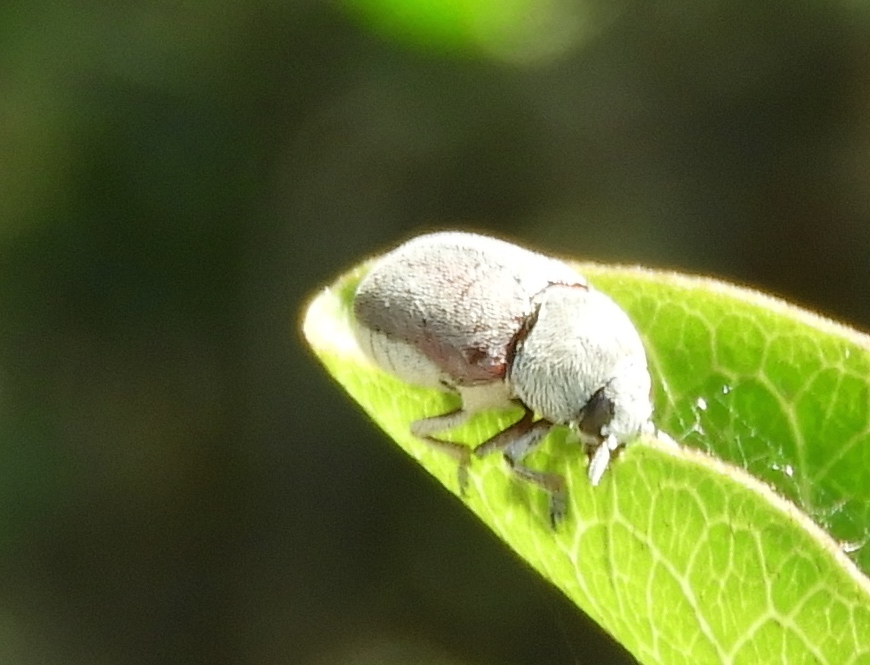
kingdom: Animalia
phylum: Arthropoda
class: Insecta
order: Coleoptera
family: Chrysomelidae
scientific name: Chrysomelidae
